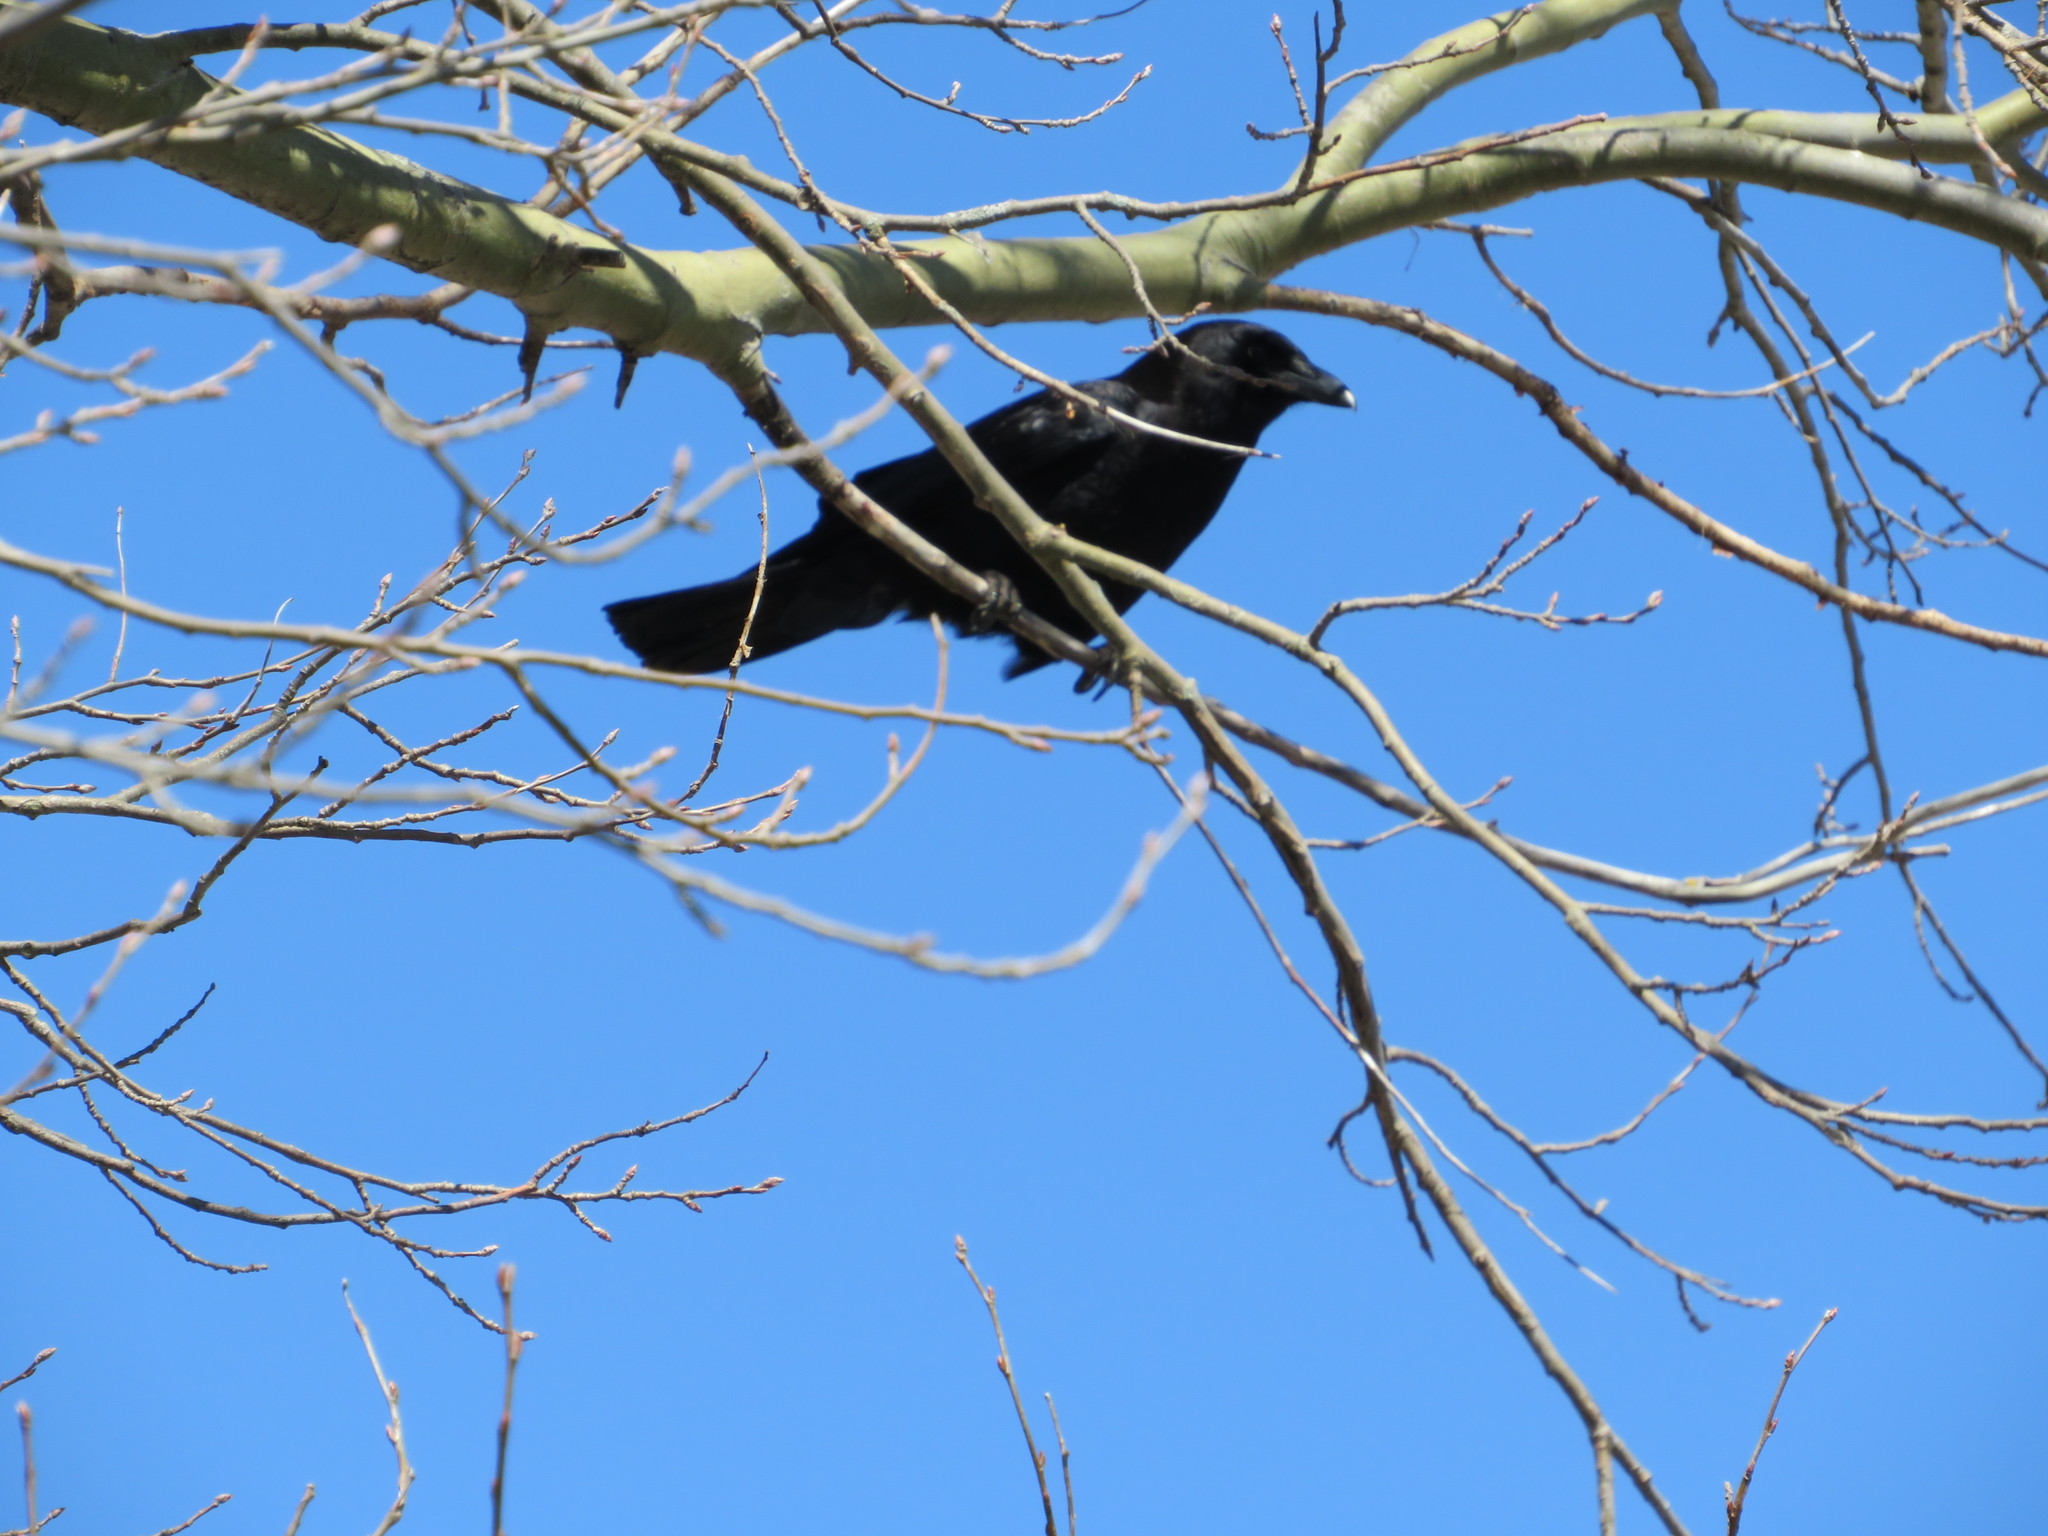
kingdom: Animalia
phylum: Chordata
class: Aves
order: Passeriformes
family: Corvidae
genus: Corvus
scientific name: Corvus brachyrhynchos
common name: American crow
